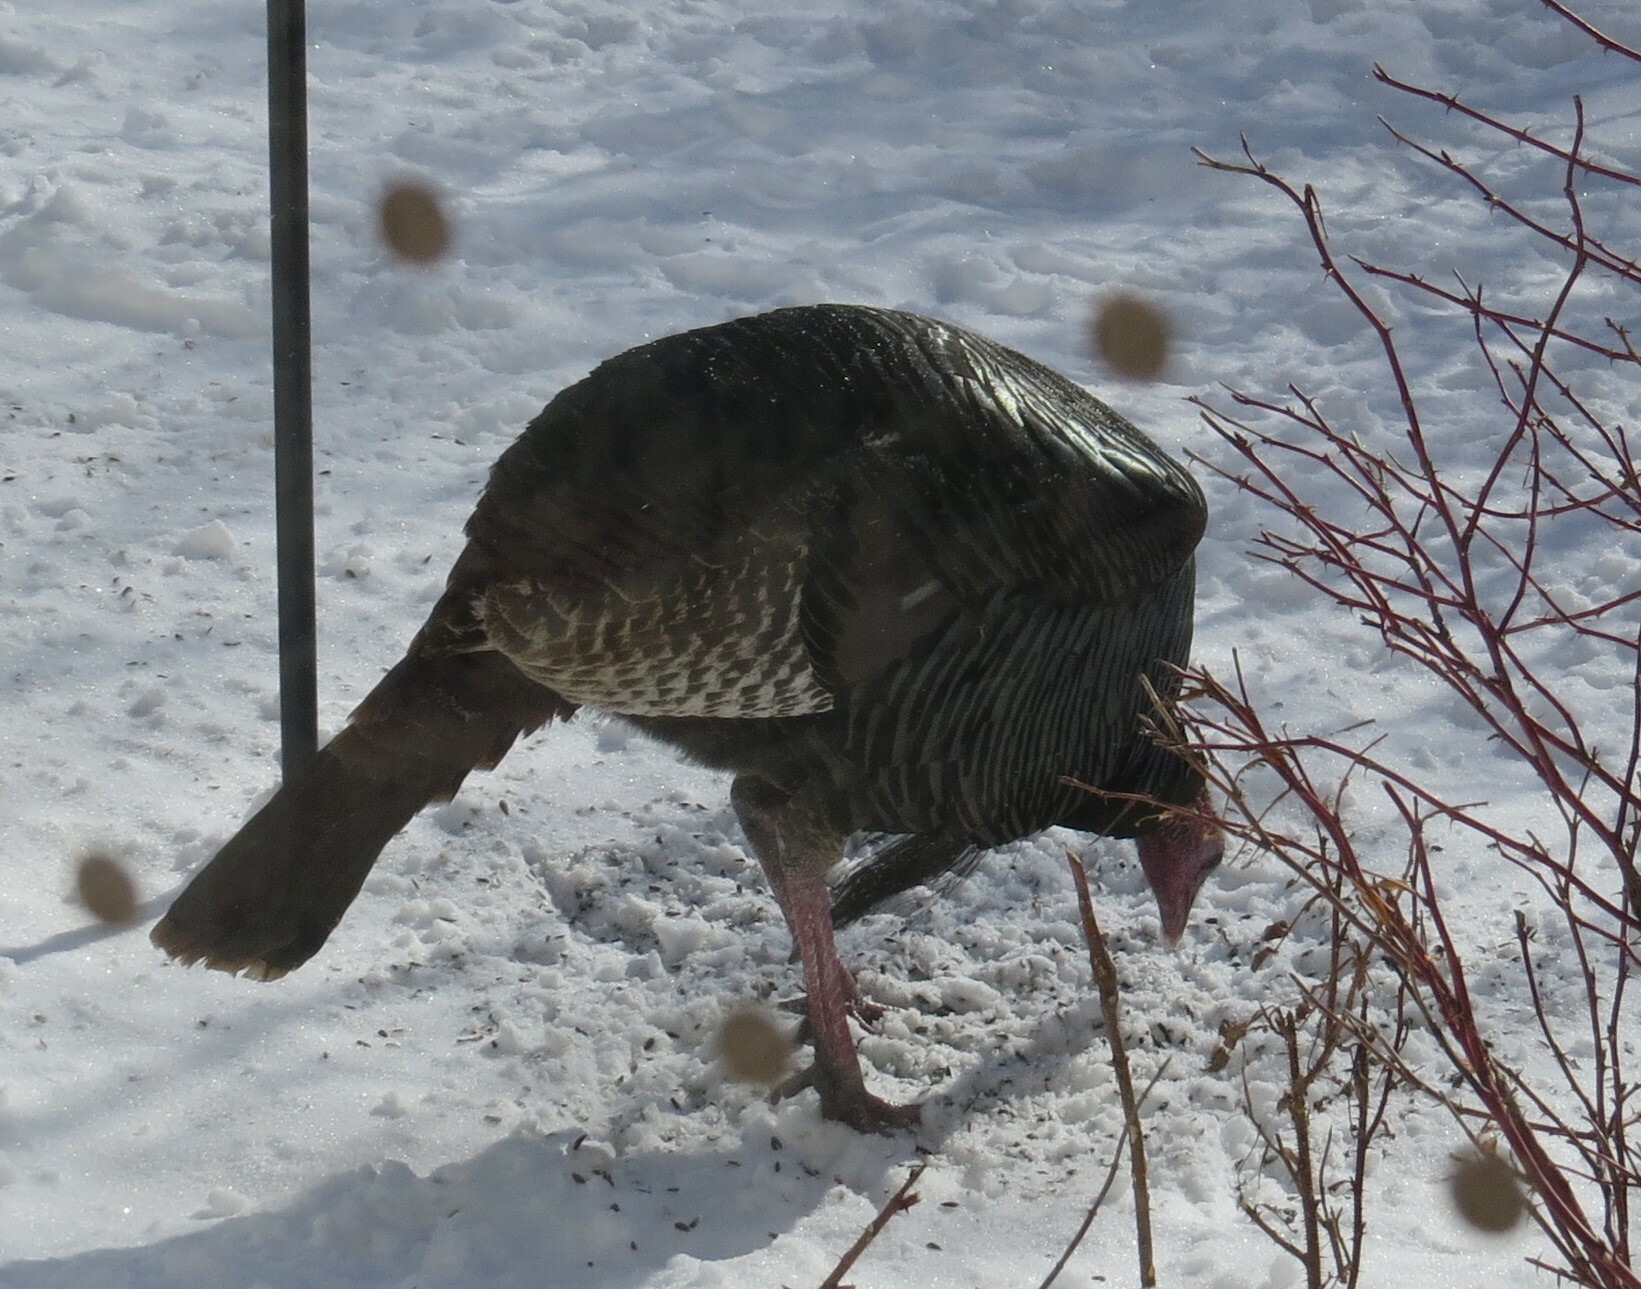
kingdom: Animalia
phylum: Chordata
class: Aves
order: Galliformes
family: Phasianidae
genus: Meleagris
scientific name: Meleagris gallopavo
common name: Wild turkey
